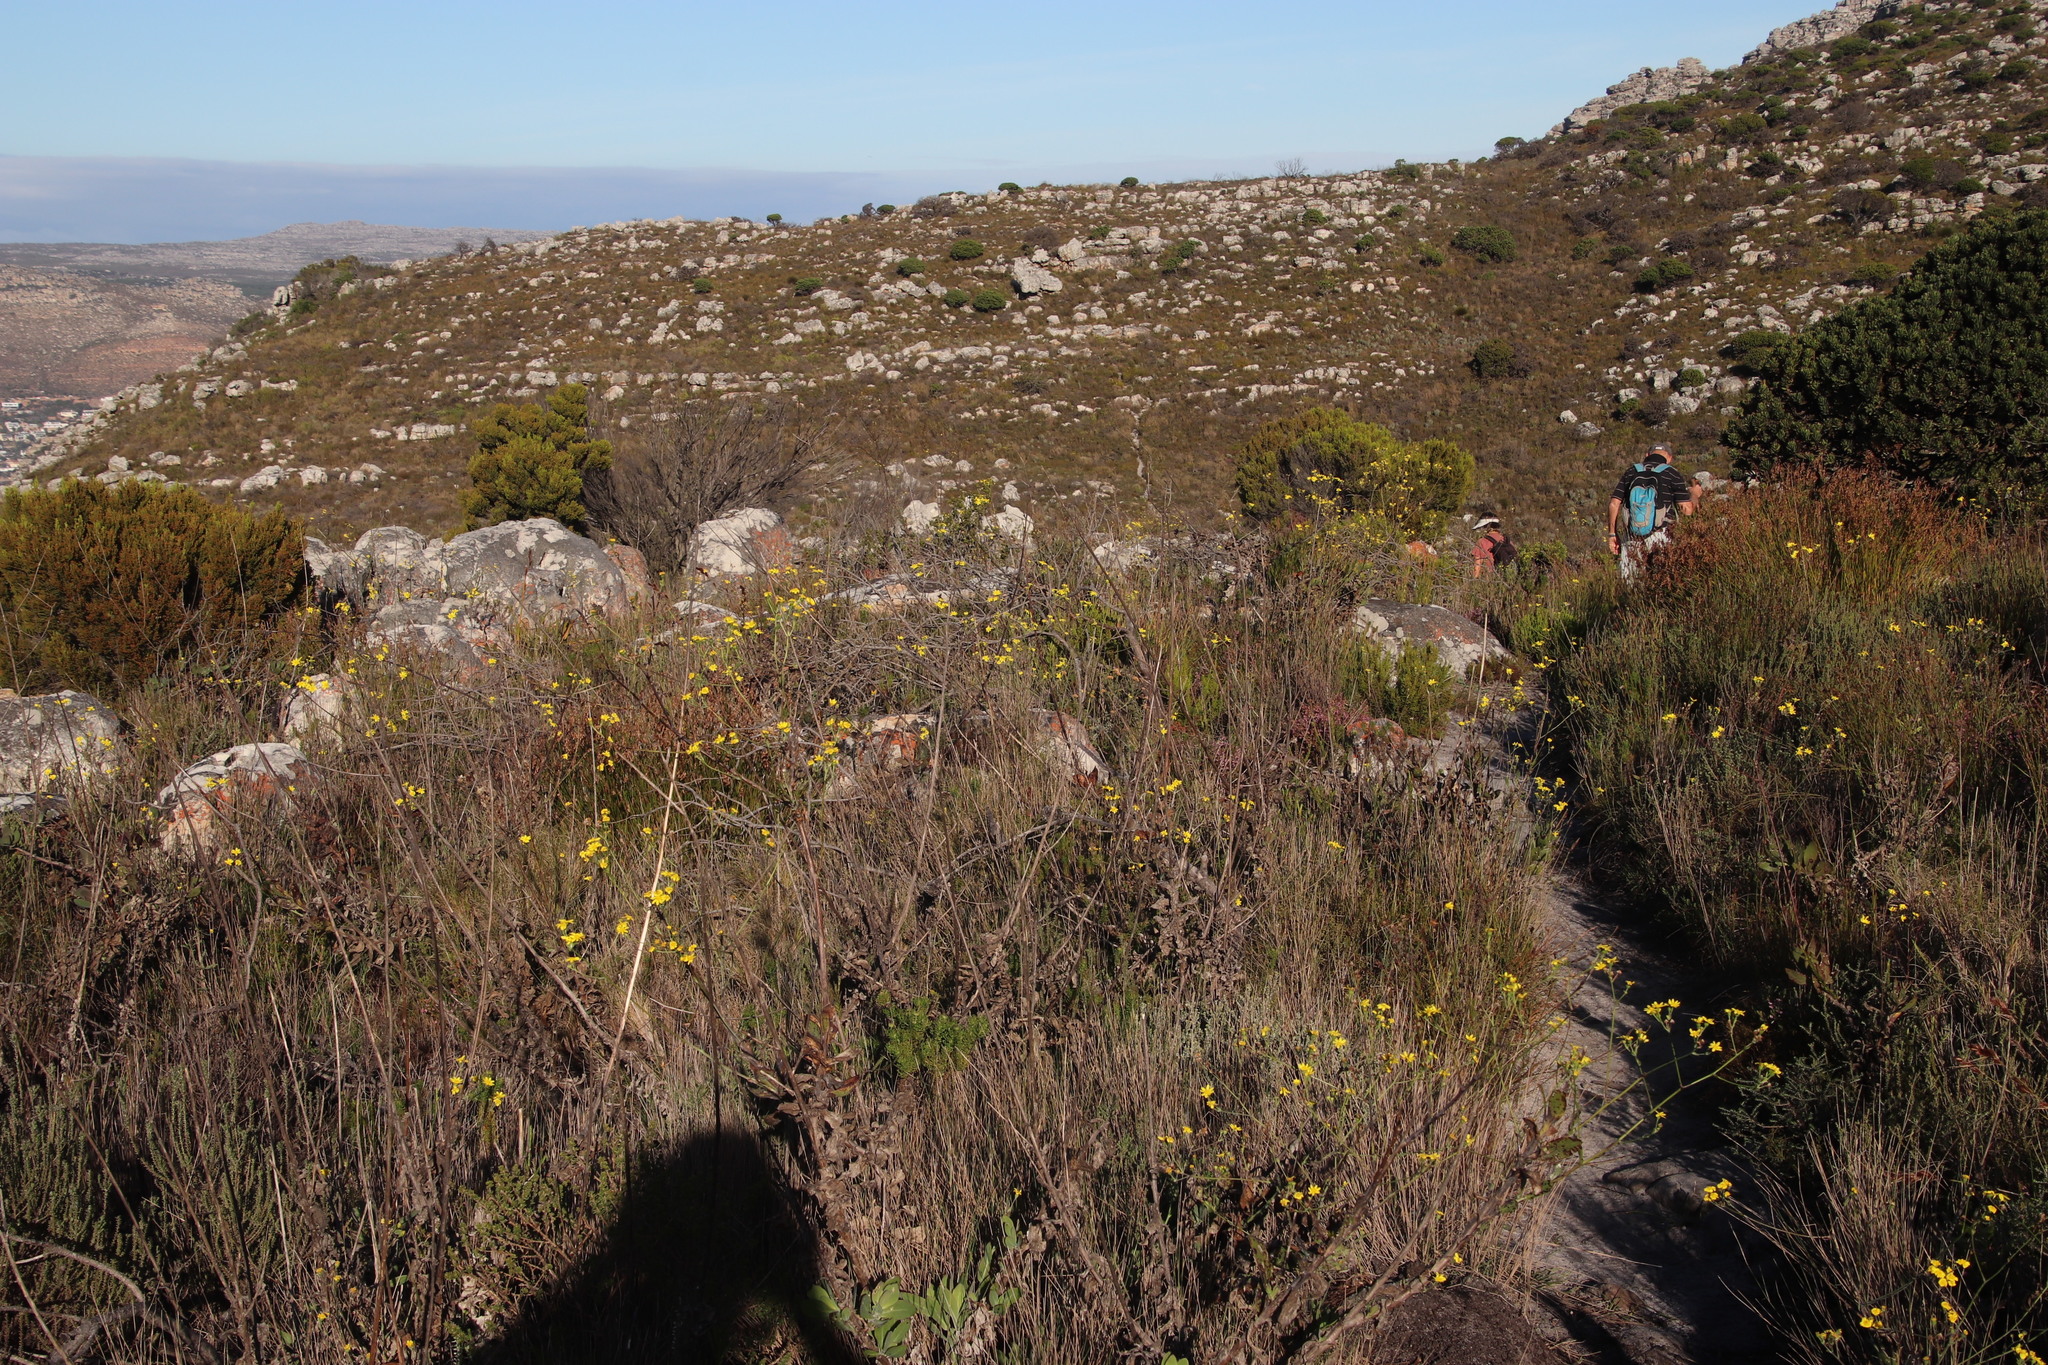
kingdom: Plantae
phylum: Tracheophyta
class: Magnoliopsida
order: Asterales
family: Asteraceae
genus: Othonna
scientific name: Othonna quinquedentata
